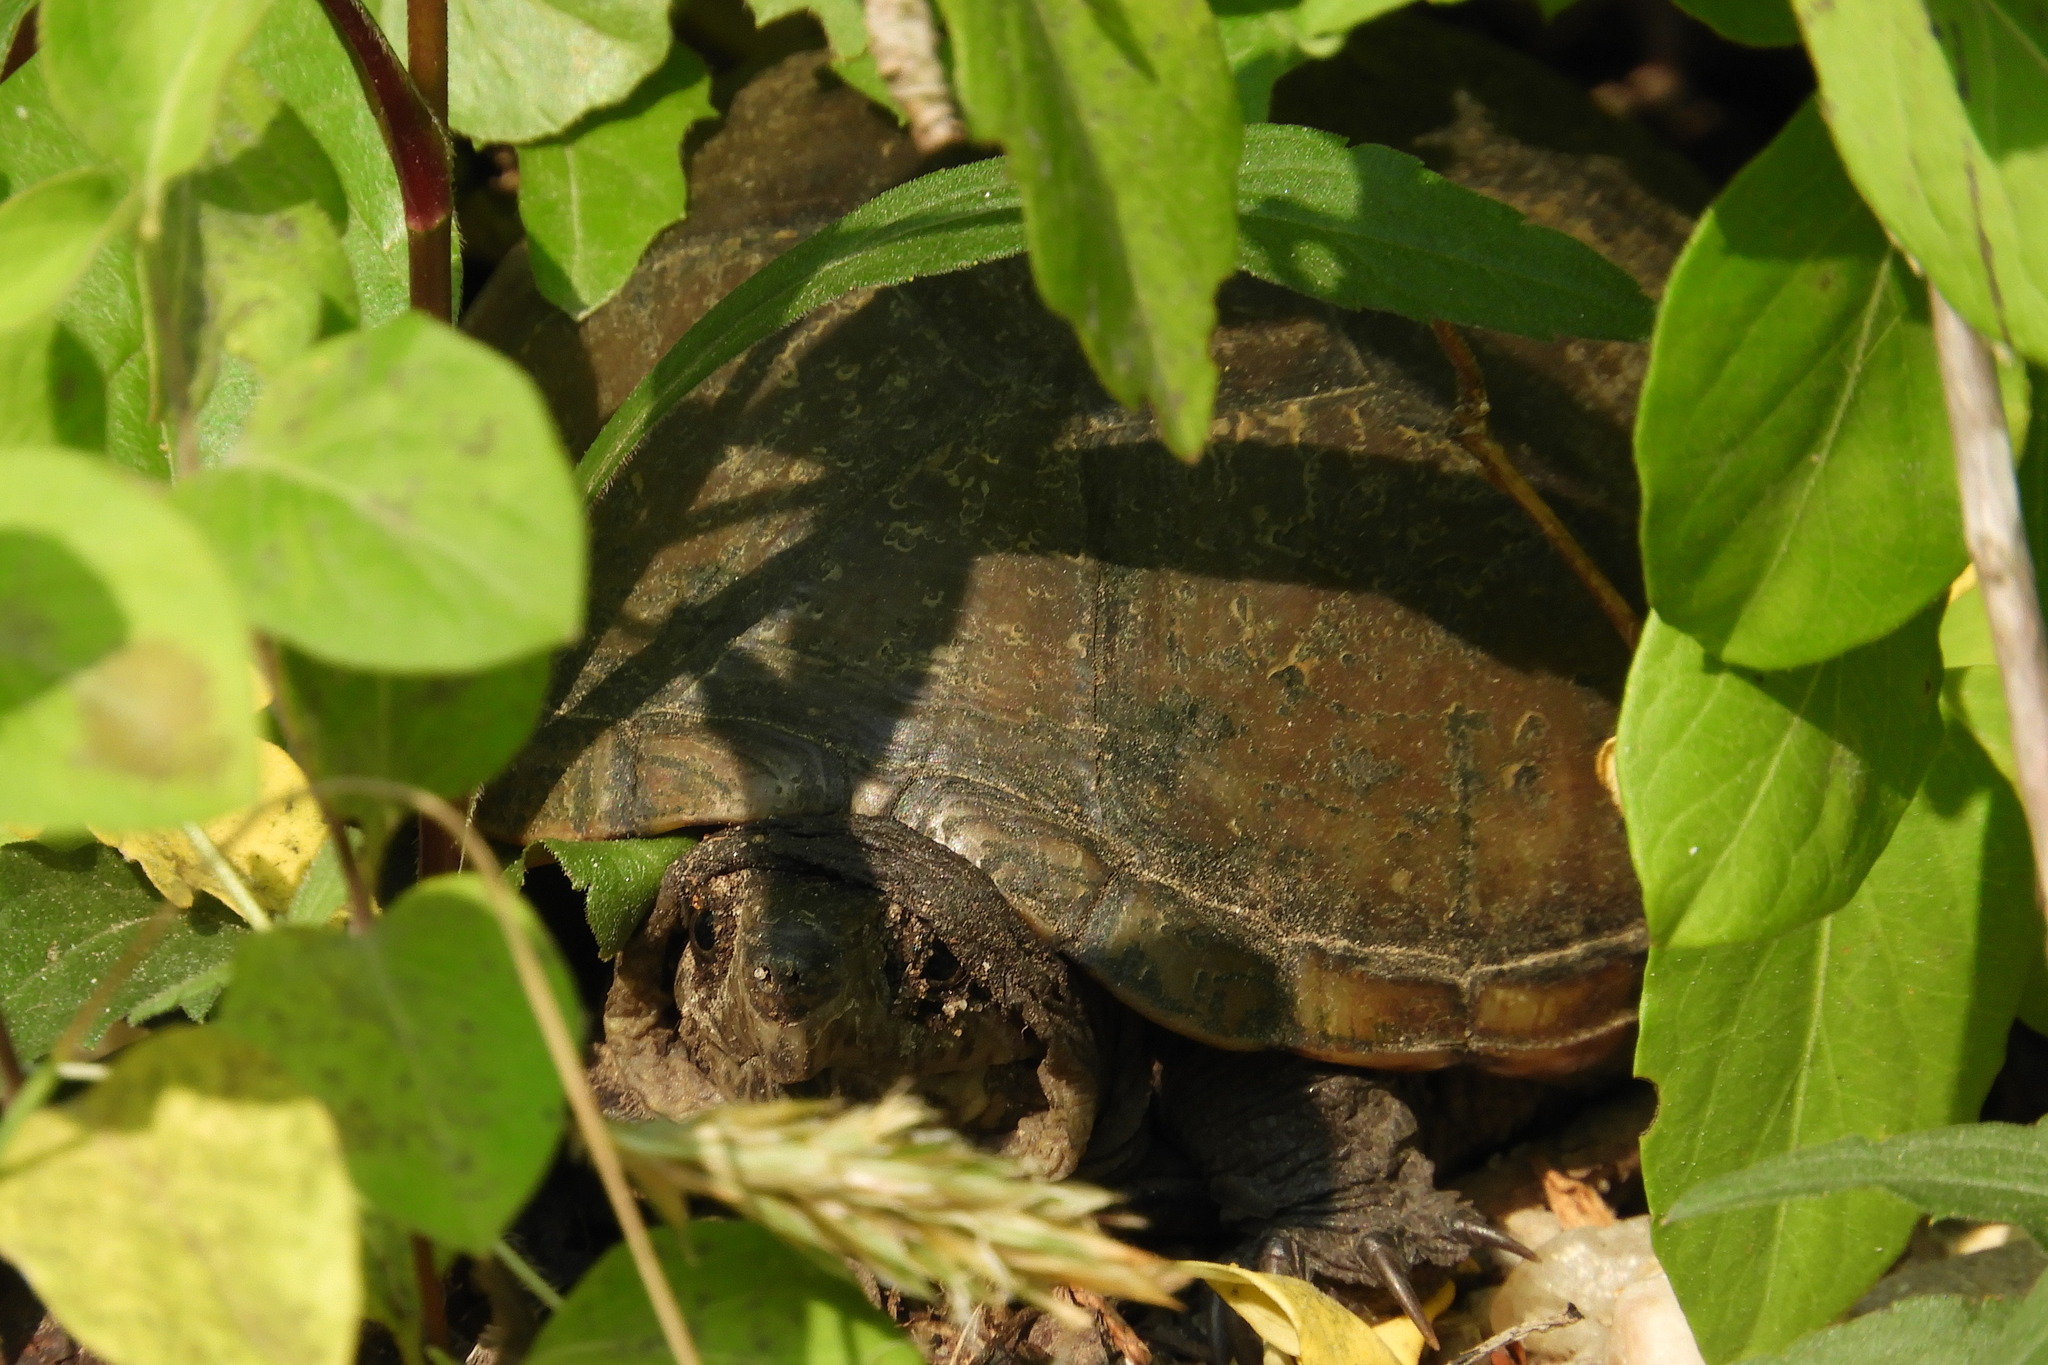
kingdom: Animalia
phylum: Chordata
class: Testudines
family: Kinosternidae
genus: Kinosternon
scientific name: Kinosternon subrubrum
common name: Eastern mud turtle
